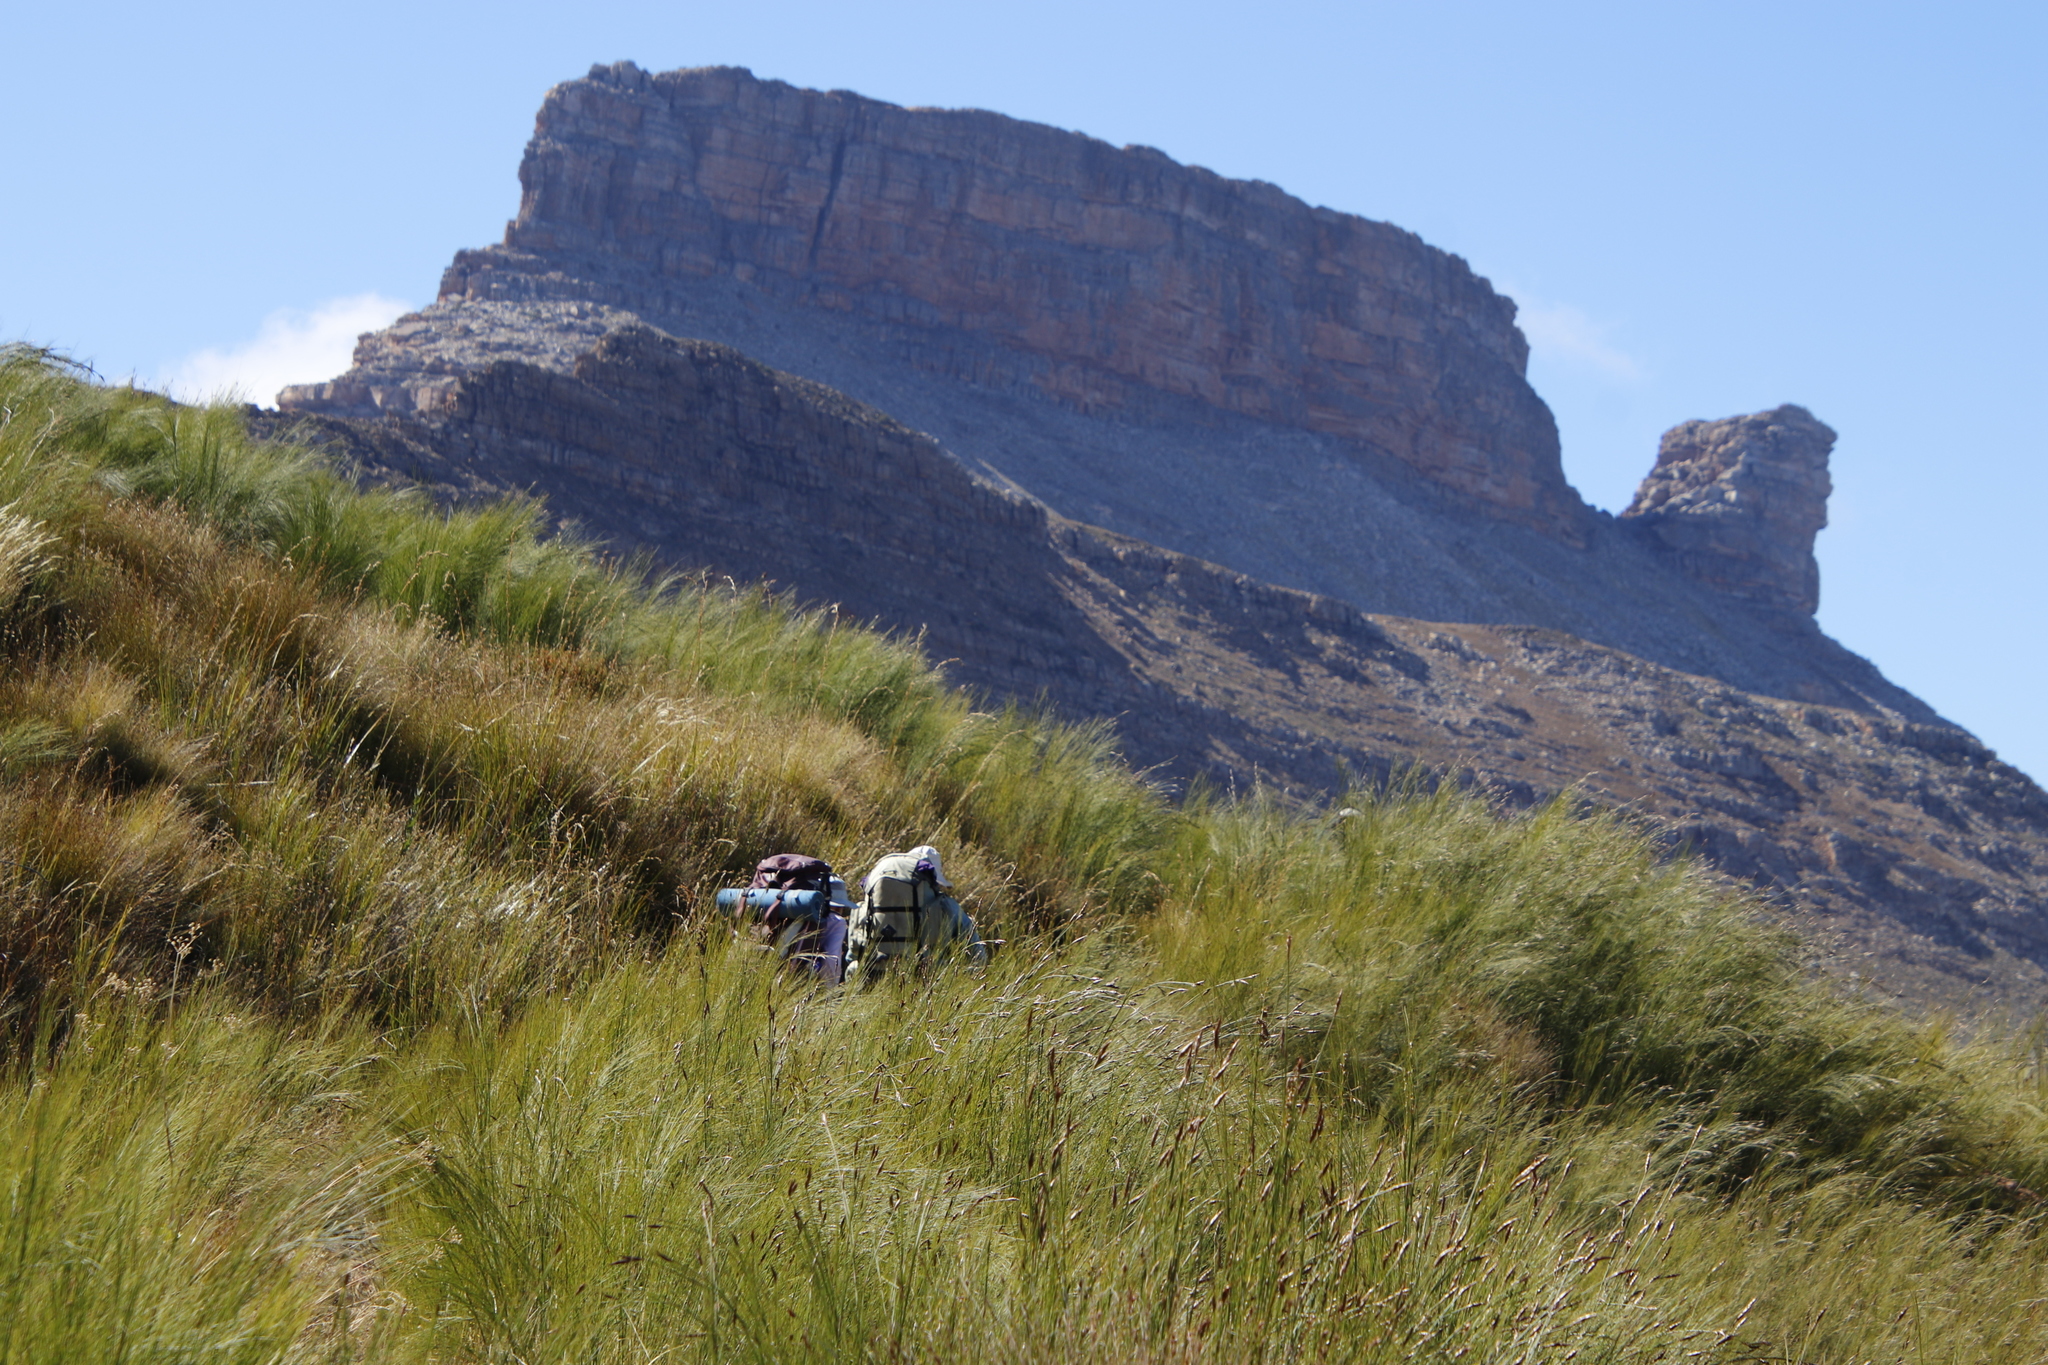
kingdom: Plantae
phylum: Tracheophyta
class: Liliopsida
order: Poales
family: Restionaceae
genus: Cannomois
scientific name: Cannomois virgata
